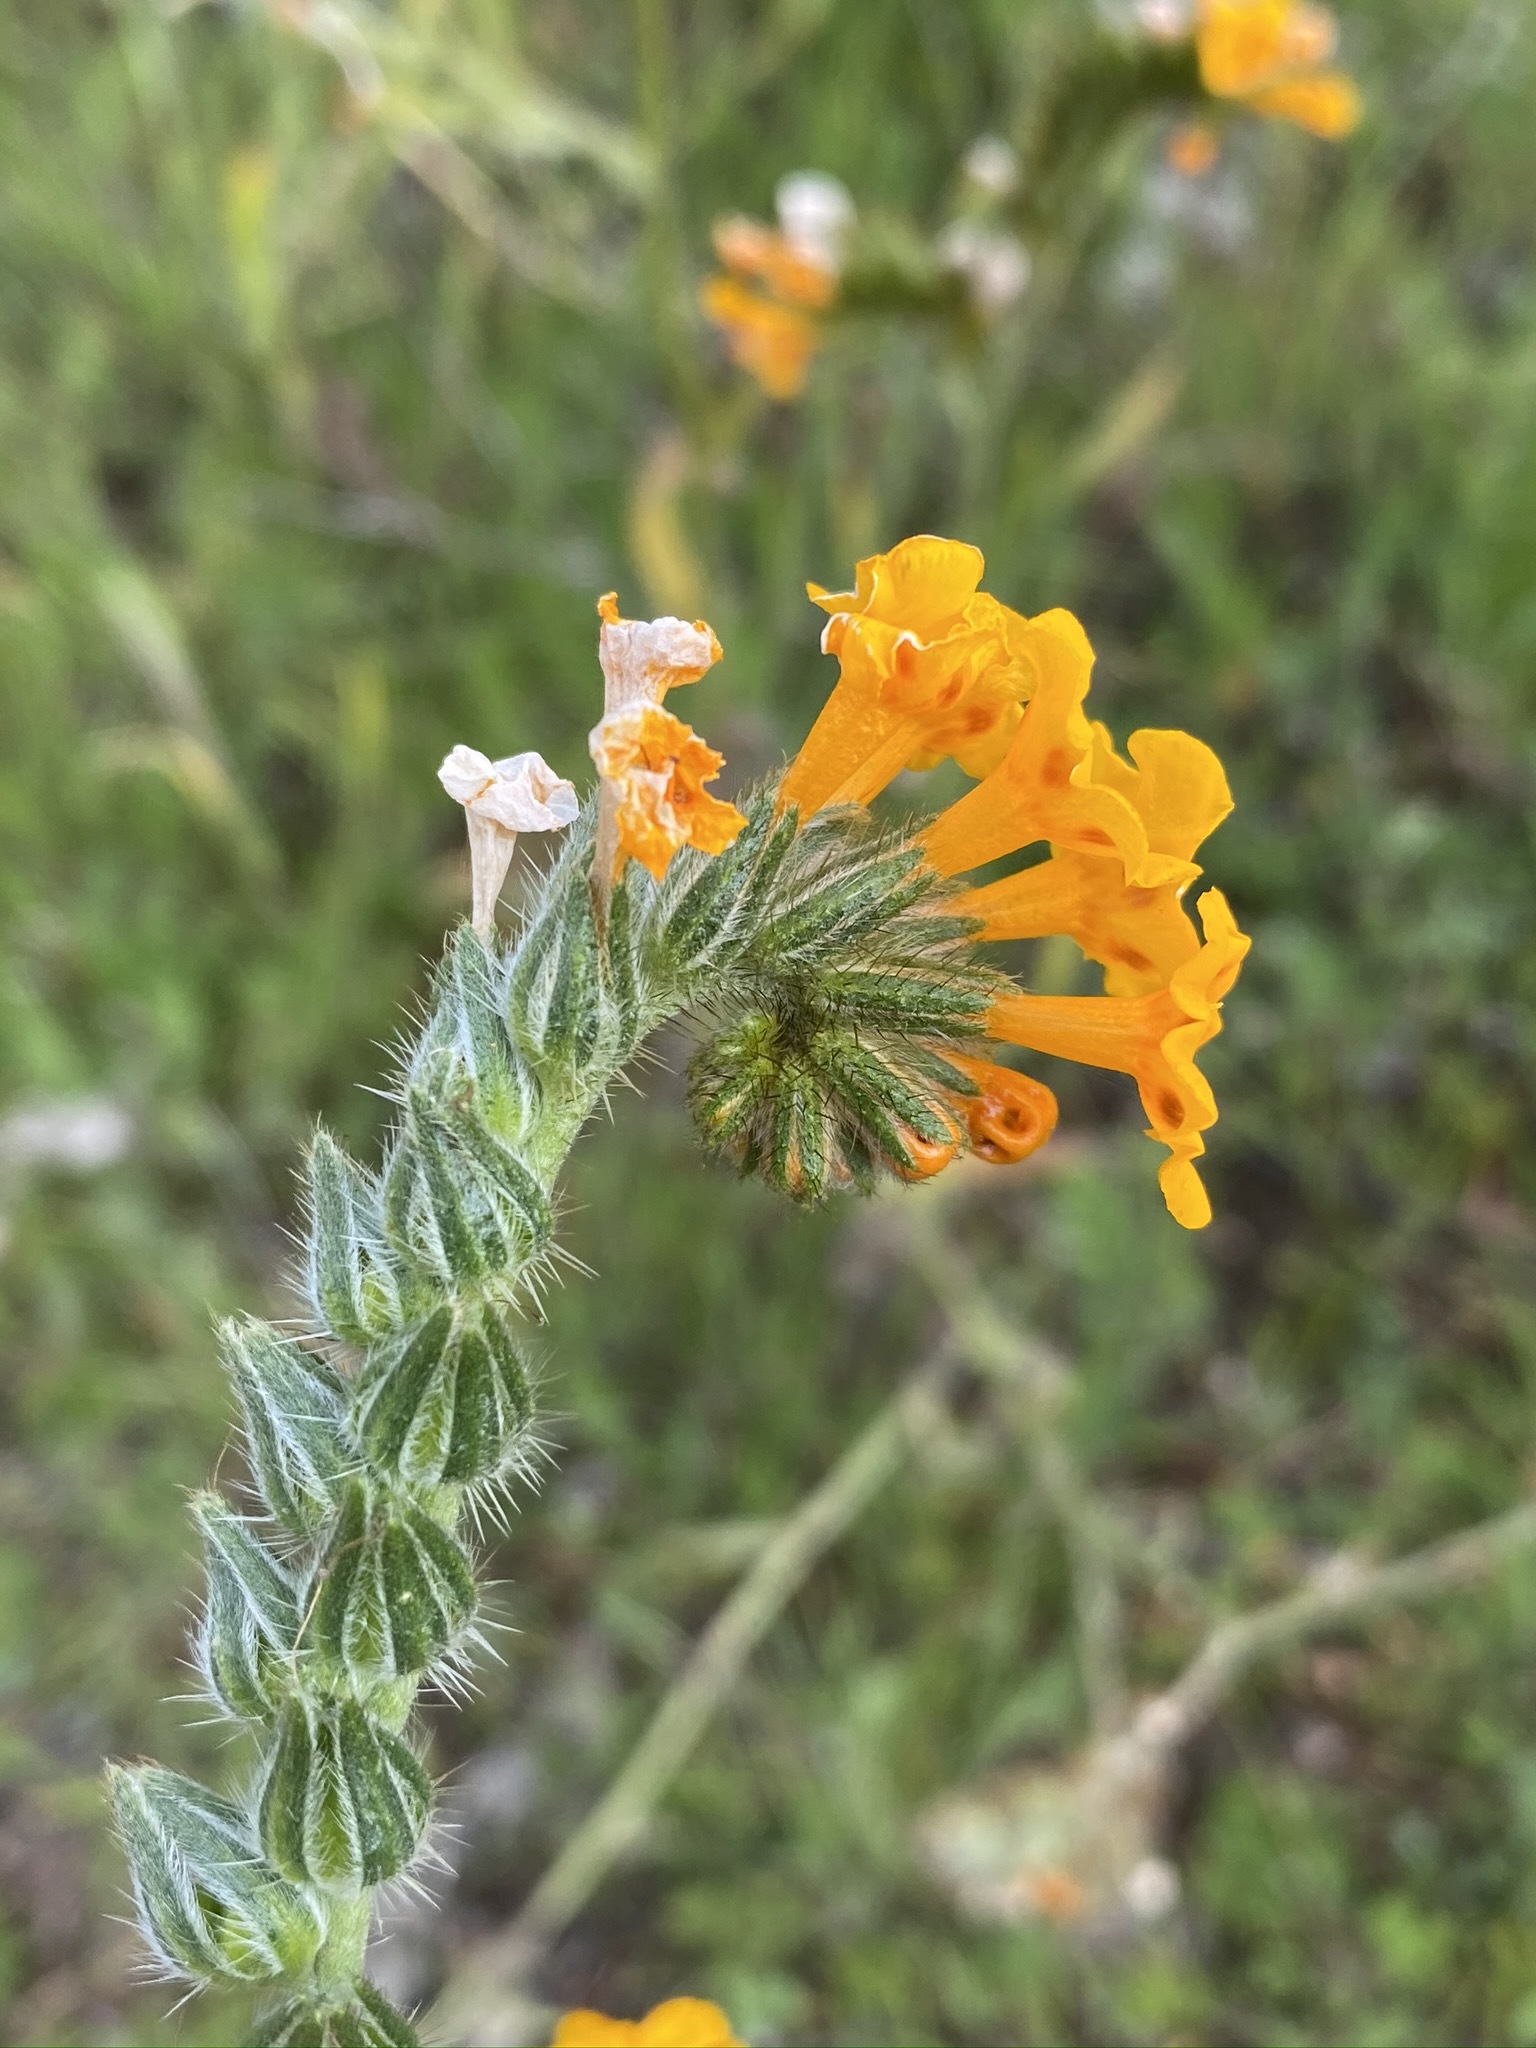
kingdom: Plantae
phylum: Tracheophyta
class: Magnoliopsida
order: Boraginales
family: Boraginaceae
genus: Amsinckia
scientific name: Amsinckia eastwoodiae
